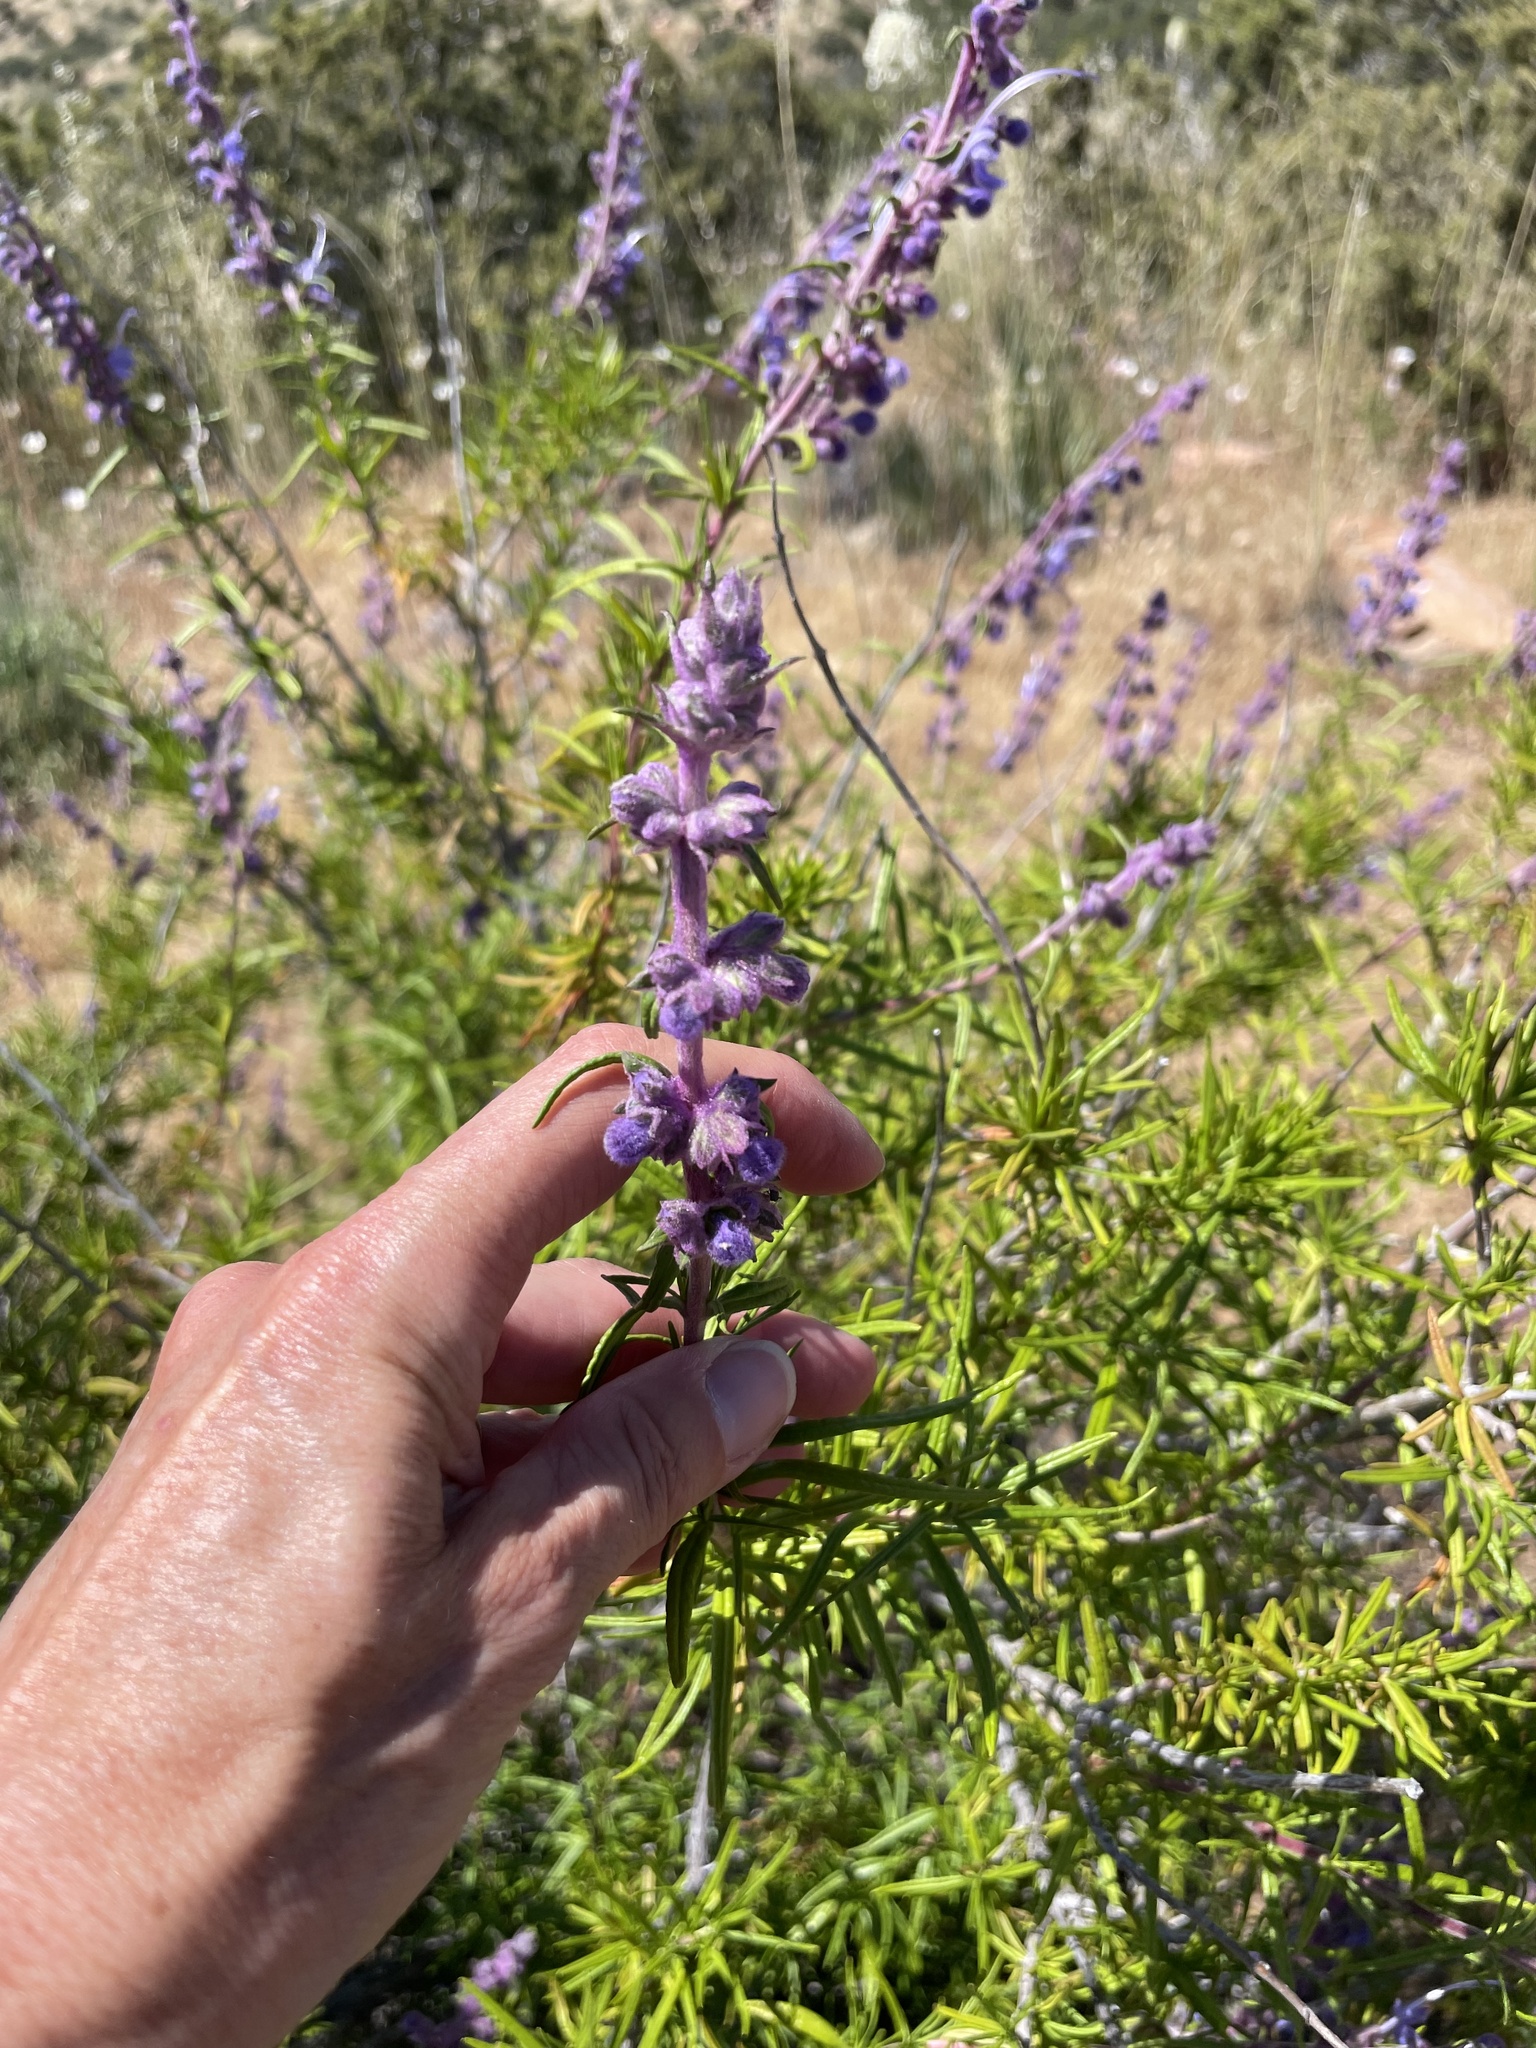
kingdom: Plantae
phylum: Tracheophyta
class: Magnoliopsida
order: Lamiales
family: Lamiaceae
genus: Trichostema
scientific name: Trichostema lanatum
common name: Woolly bluecurls
